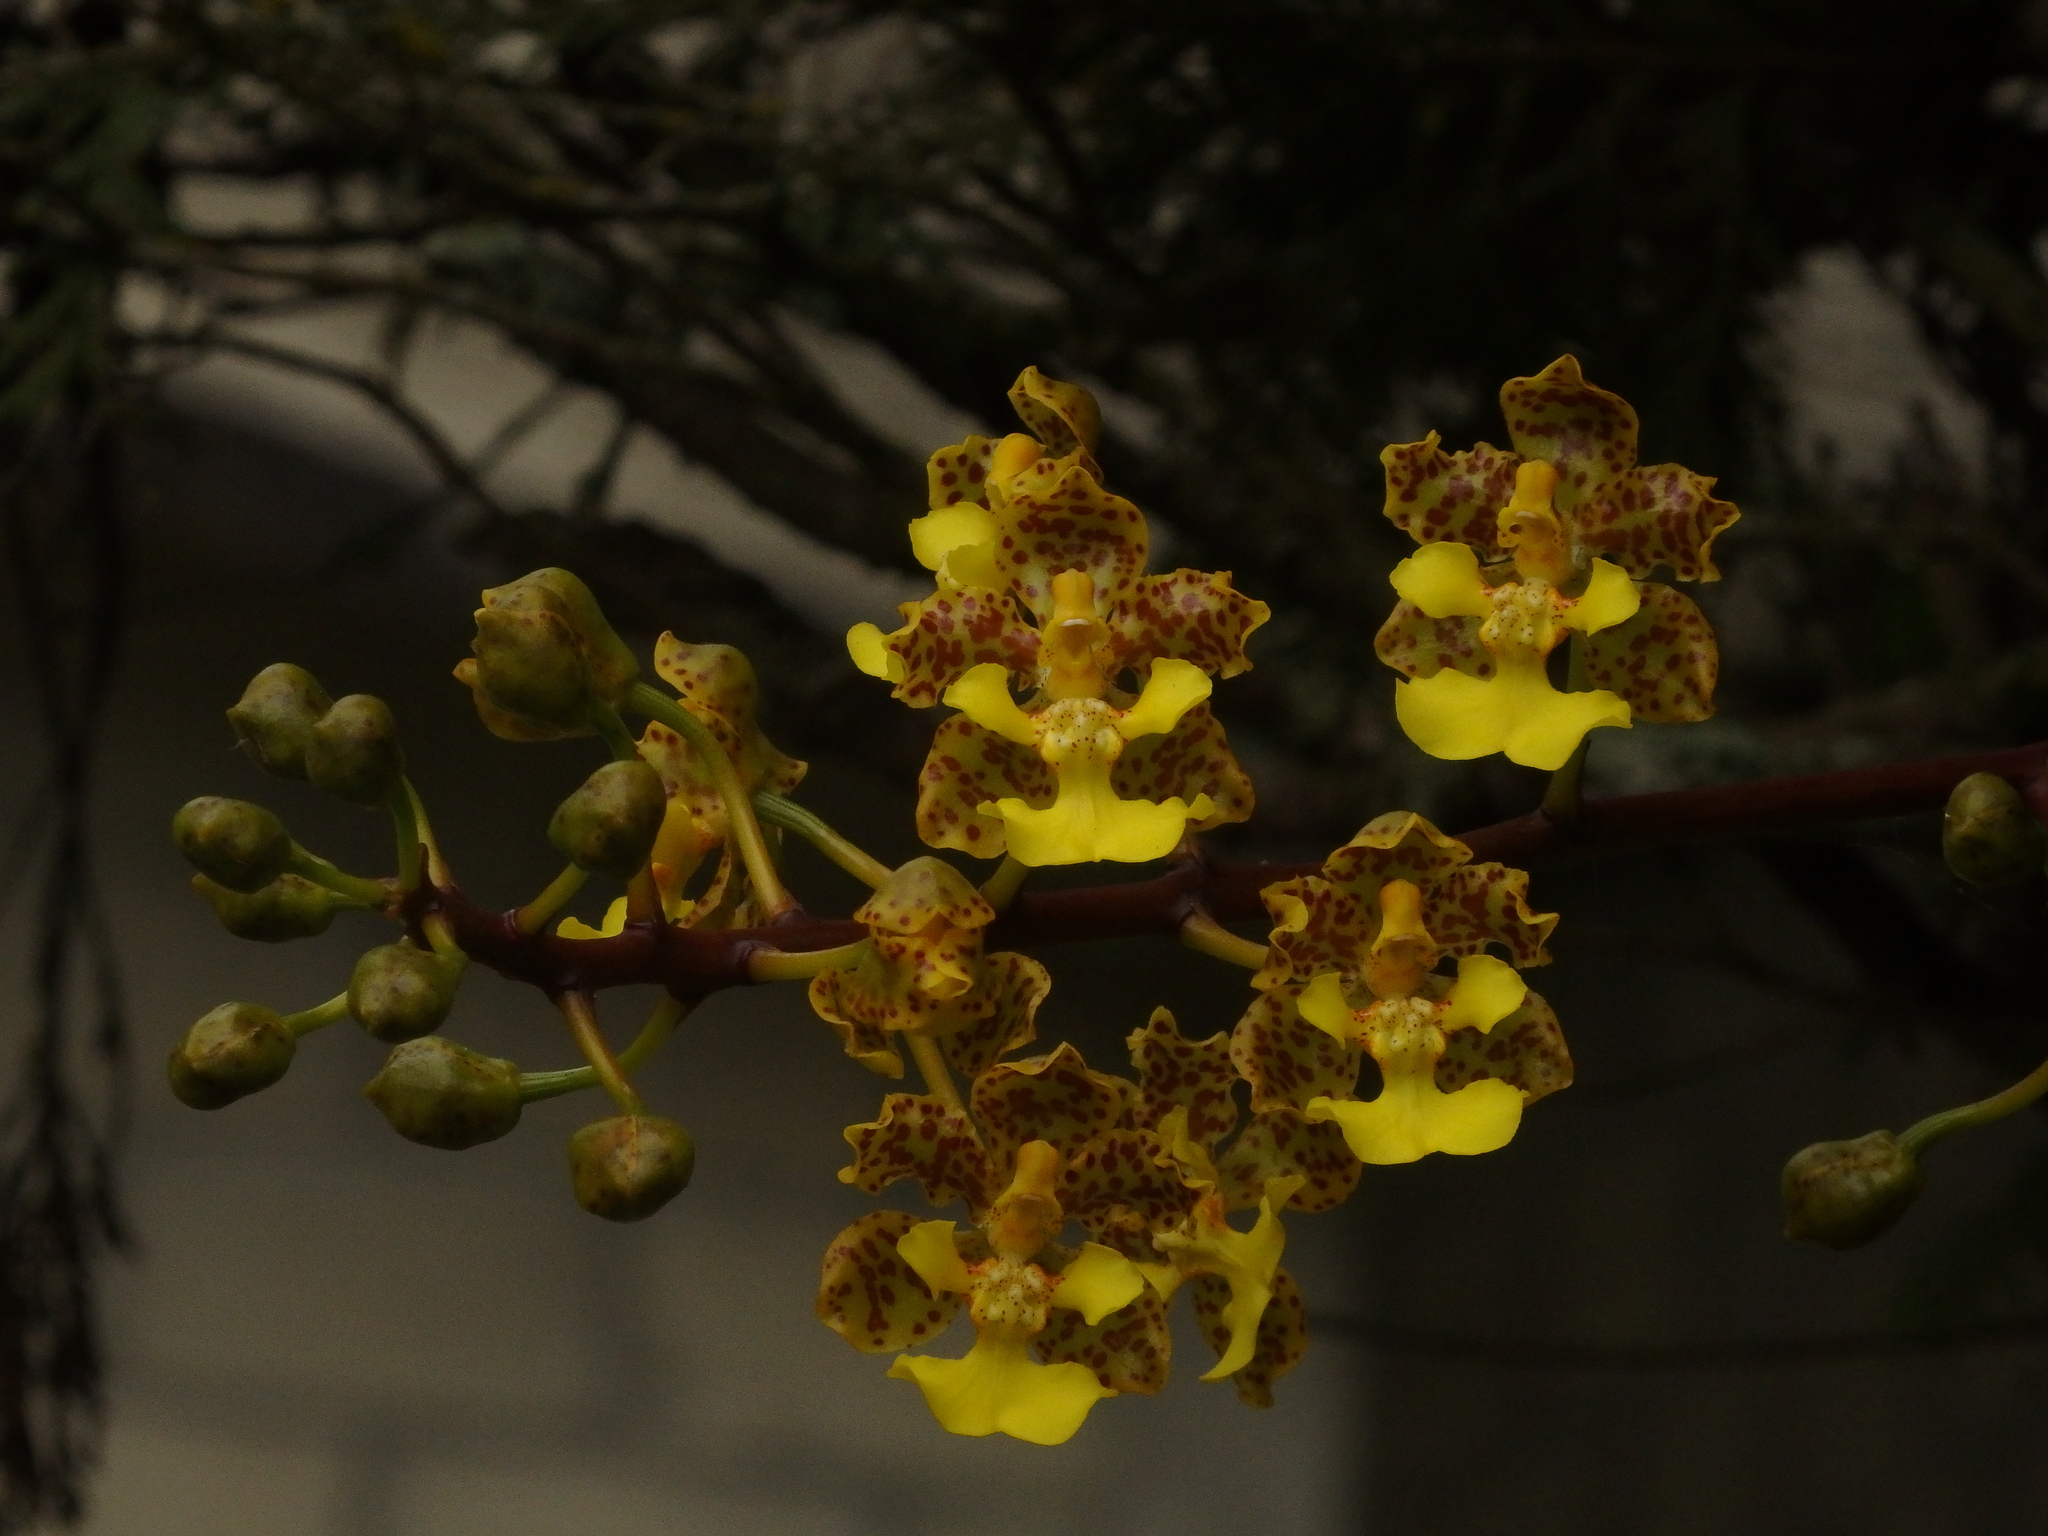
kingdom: Plantae
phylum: Tracheophyta
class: Liliopsida
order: Asparagales
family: Orchidaceae
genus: Trichocentrum
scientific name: Trichocentrum cavendishianum
